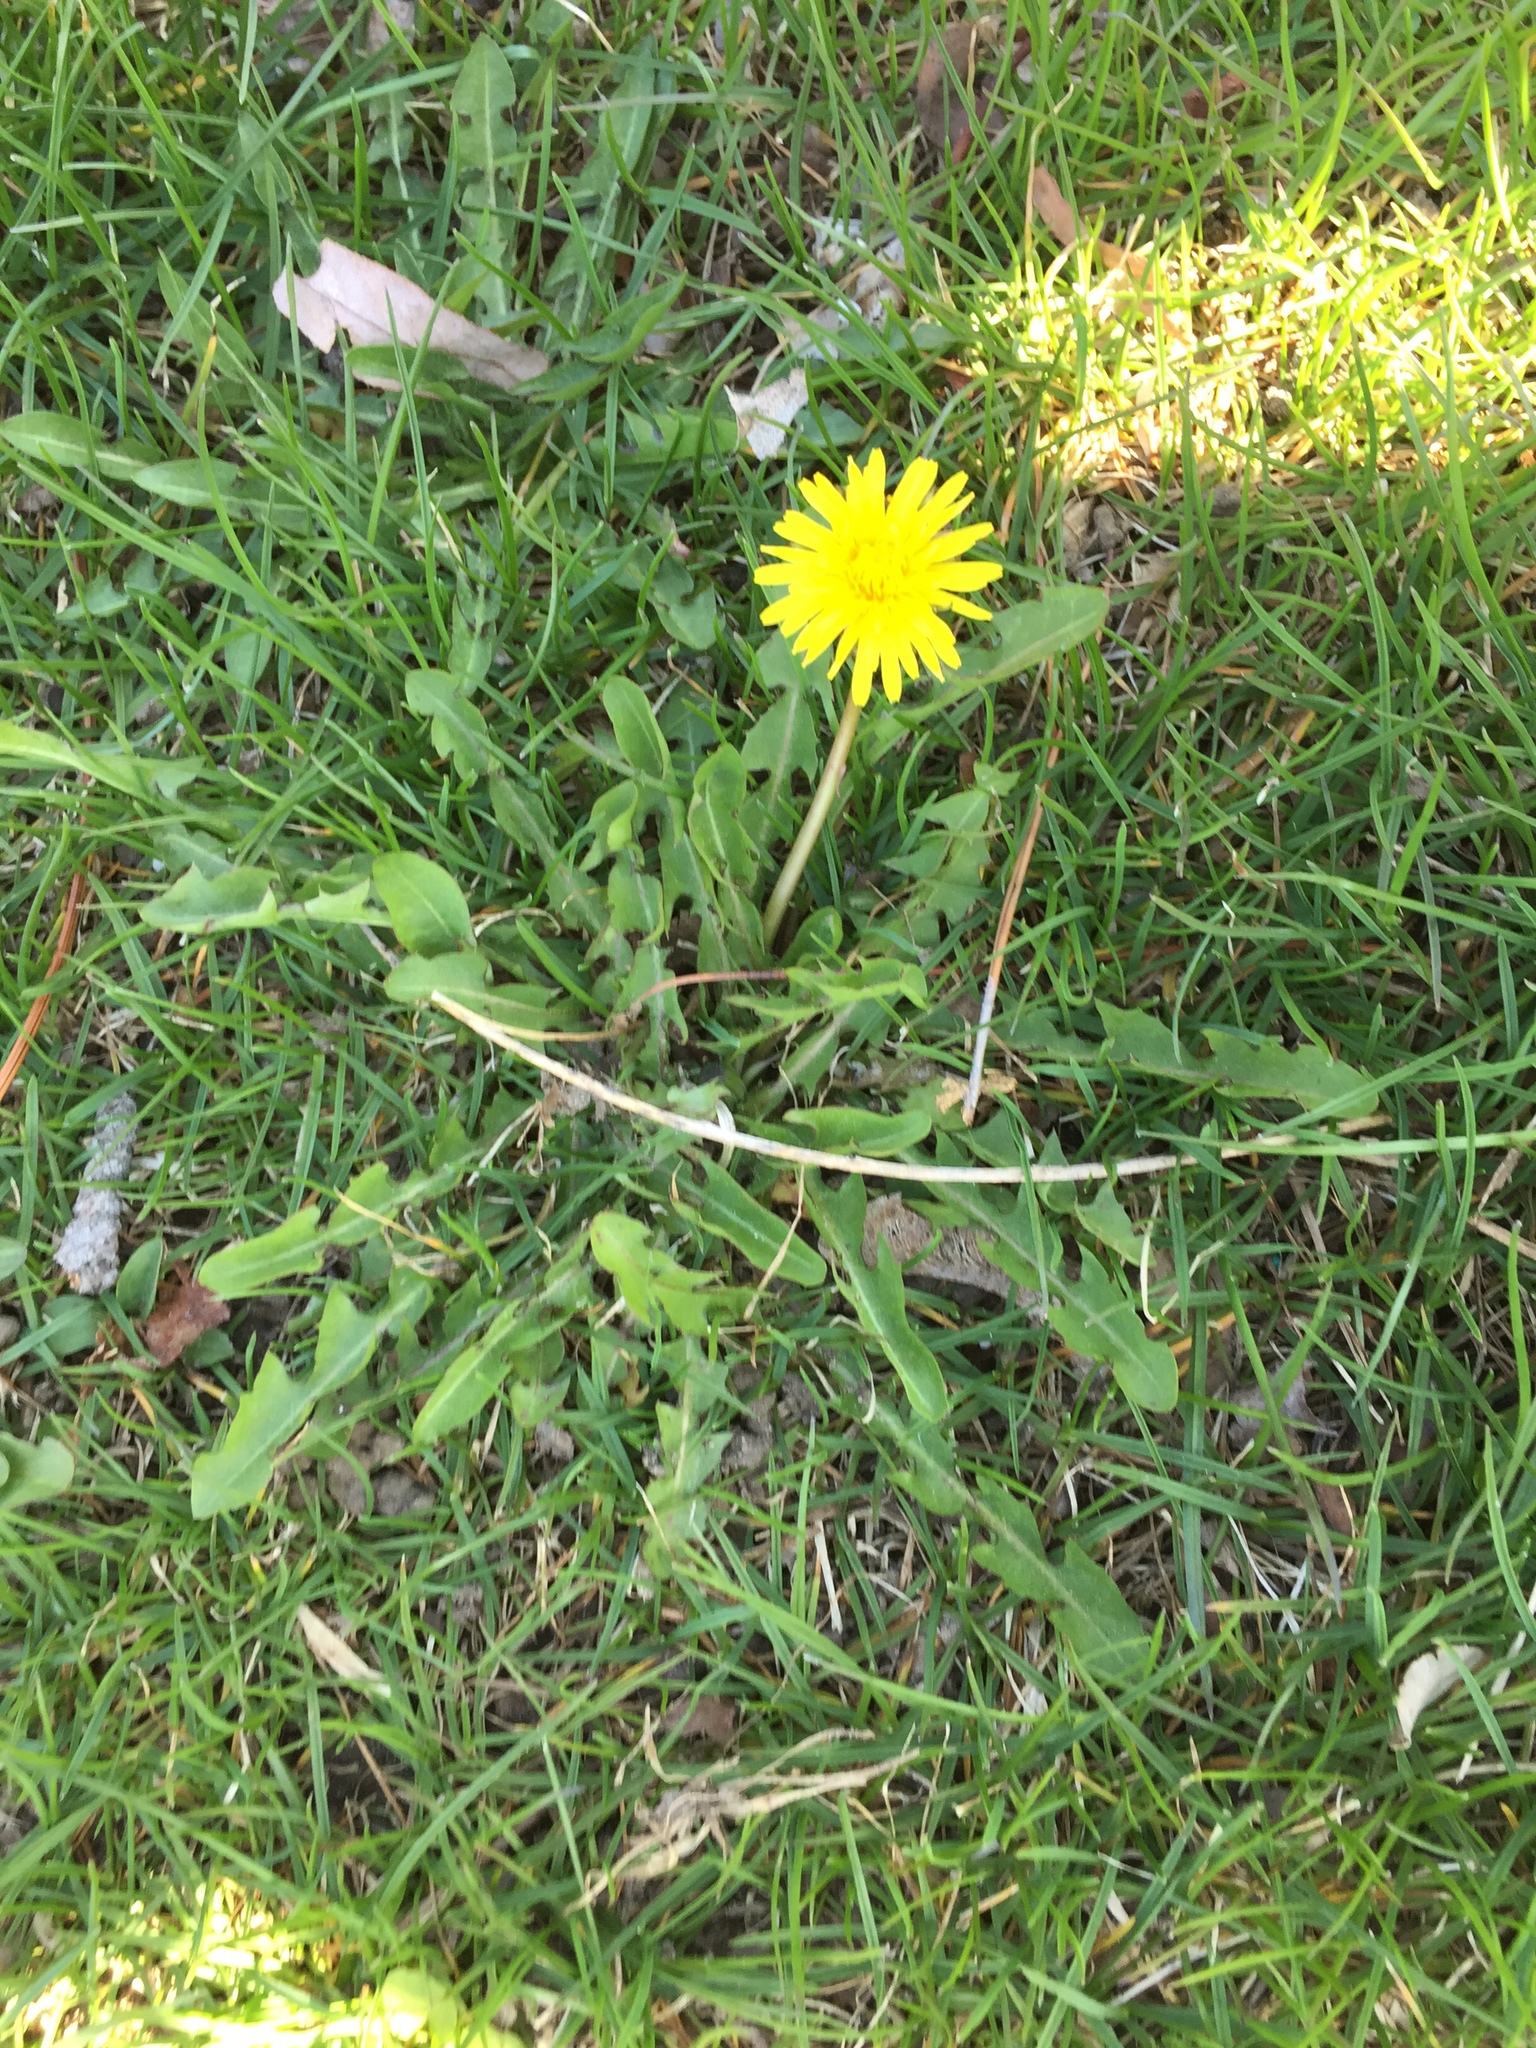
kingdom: Plantae
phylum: Tracheophyta
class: Magnoliopsida
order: Asterales
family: Asteraceae
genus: Taraxacum
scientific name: Taraxacum officinale
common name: Common dandelion
